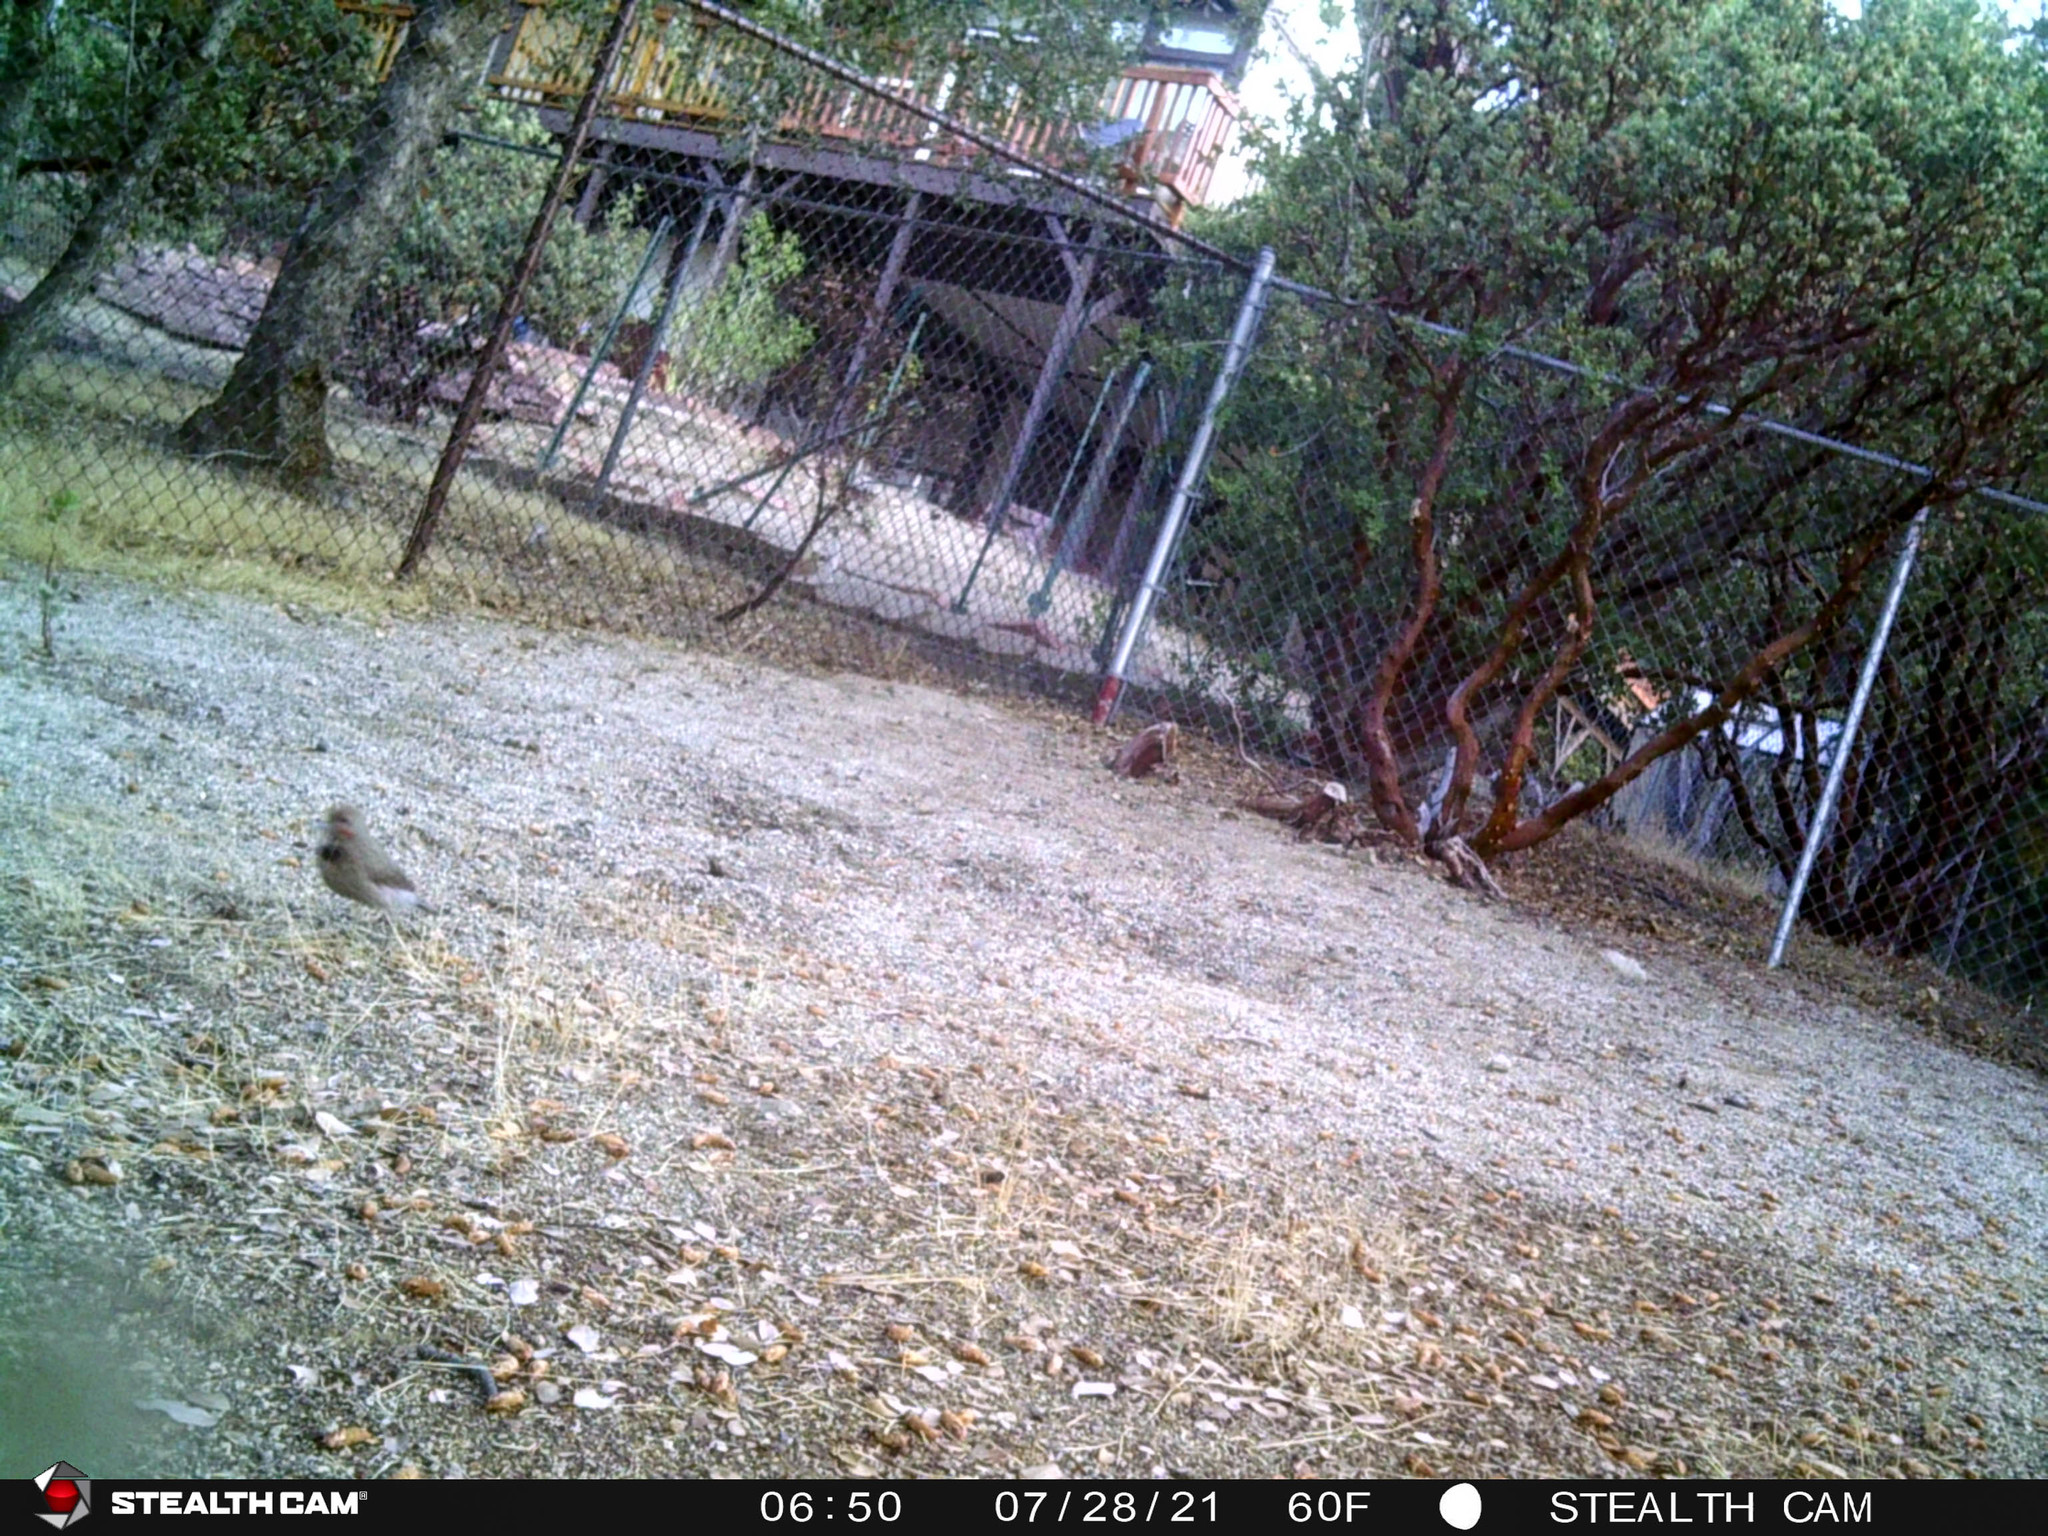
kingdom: Animalia
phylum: Chordata
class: Aves
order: Piciformes
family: Picidae
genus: Colaptes
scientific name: Colaptes auratus
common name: Northern flicker
